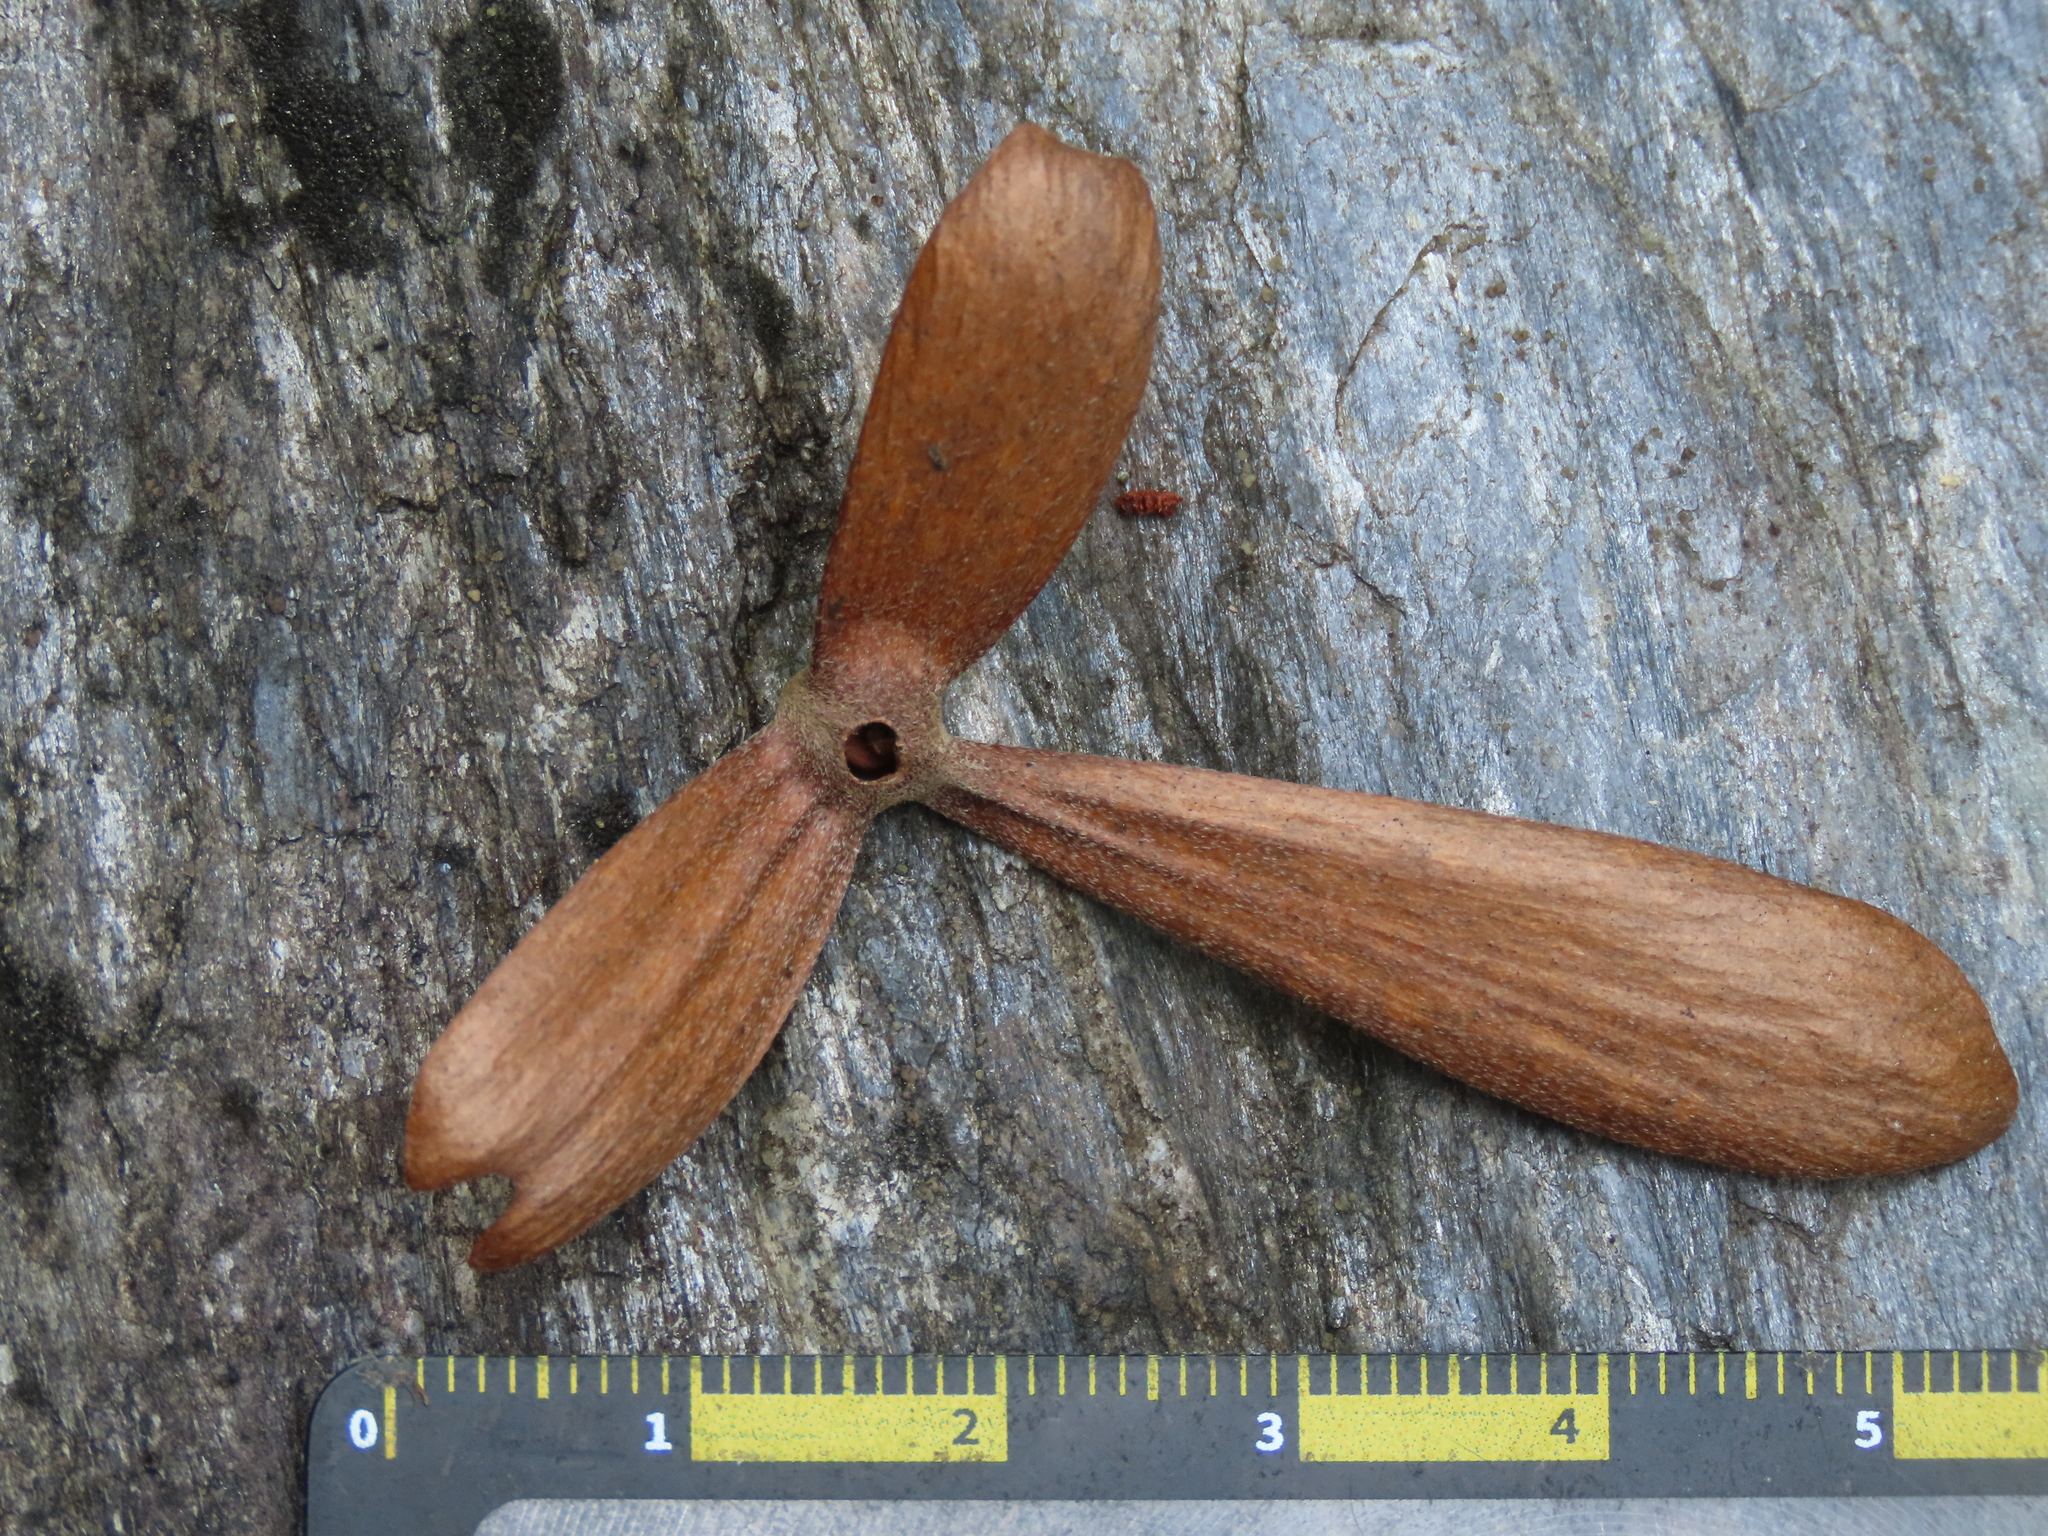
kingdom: Plantae
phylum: Tracheophyta
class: Magnoliopsida
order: Malpighiales
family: Malpighiaceae
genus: Hiptage
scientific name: Hiptage benghalensis
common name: Hiptage
